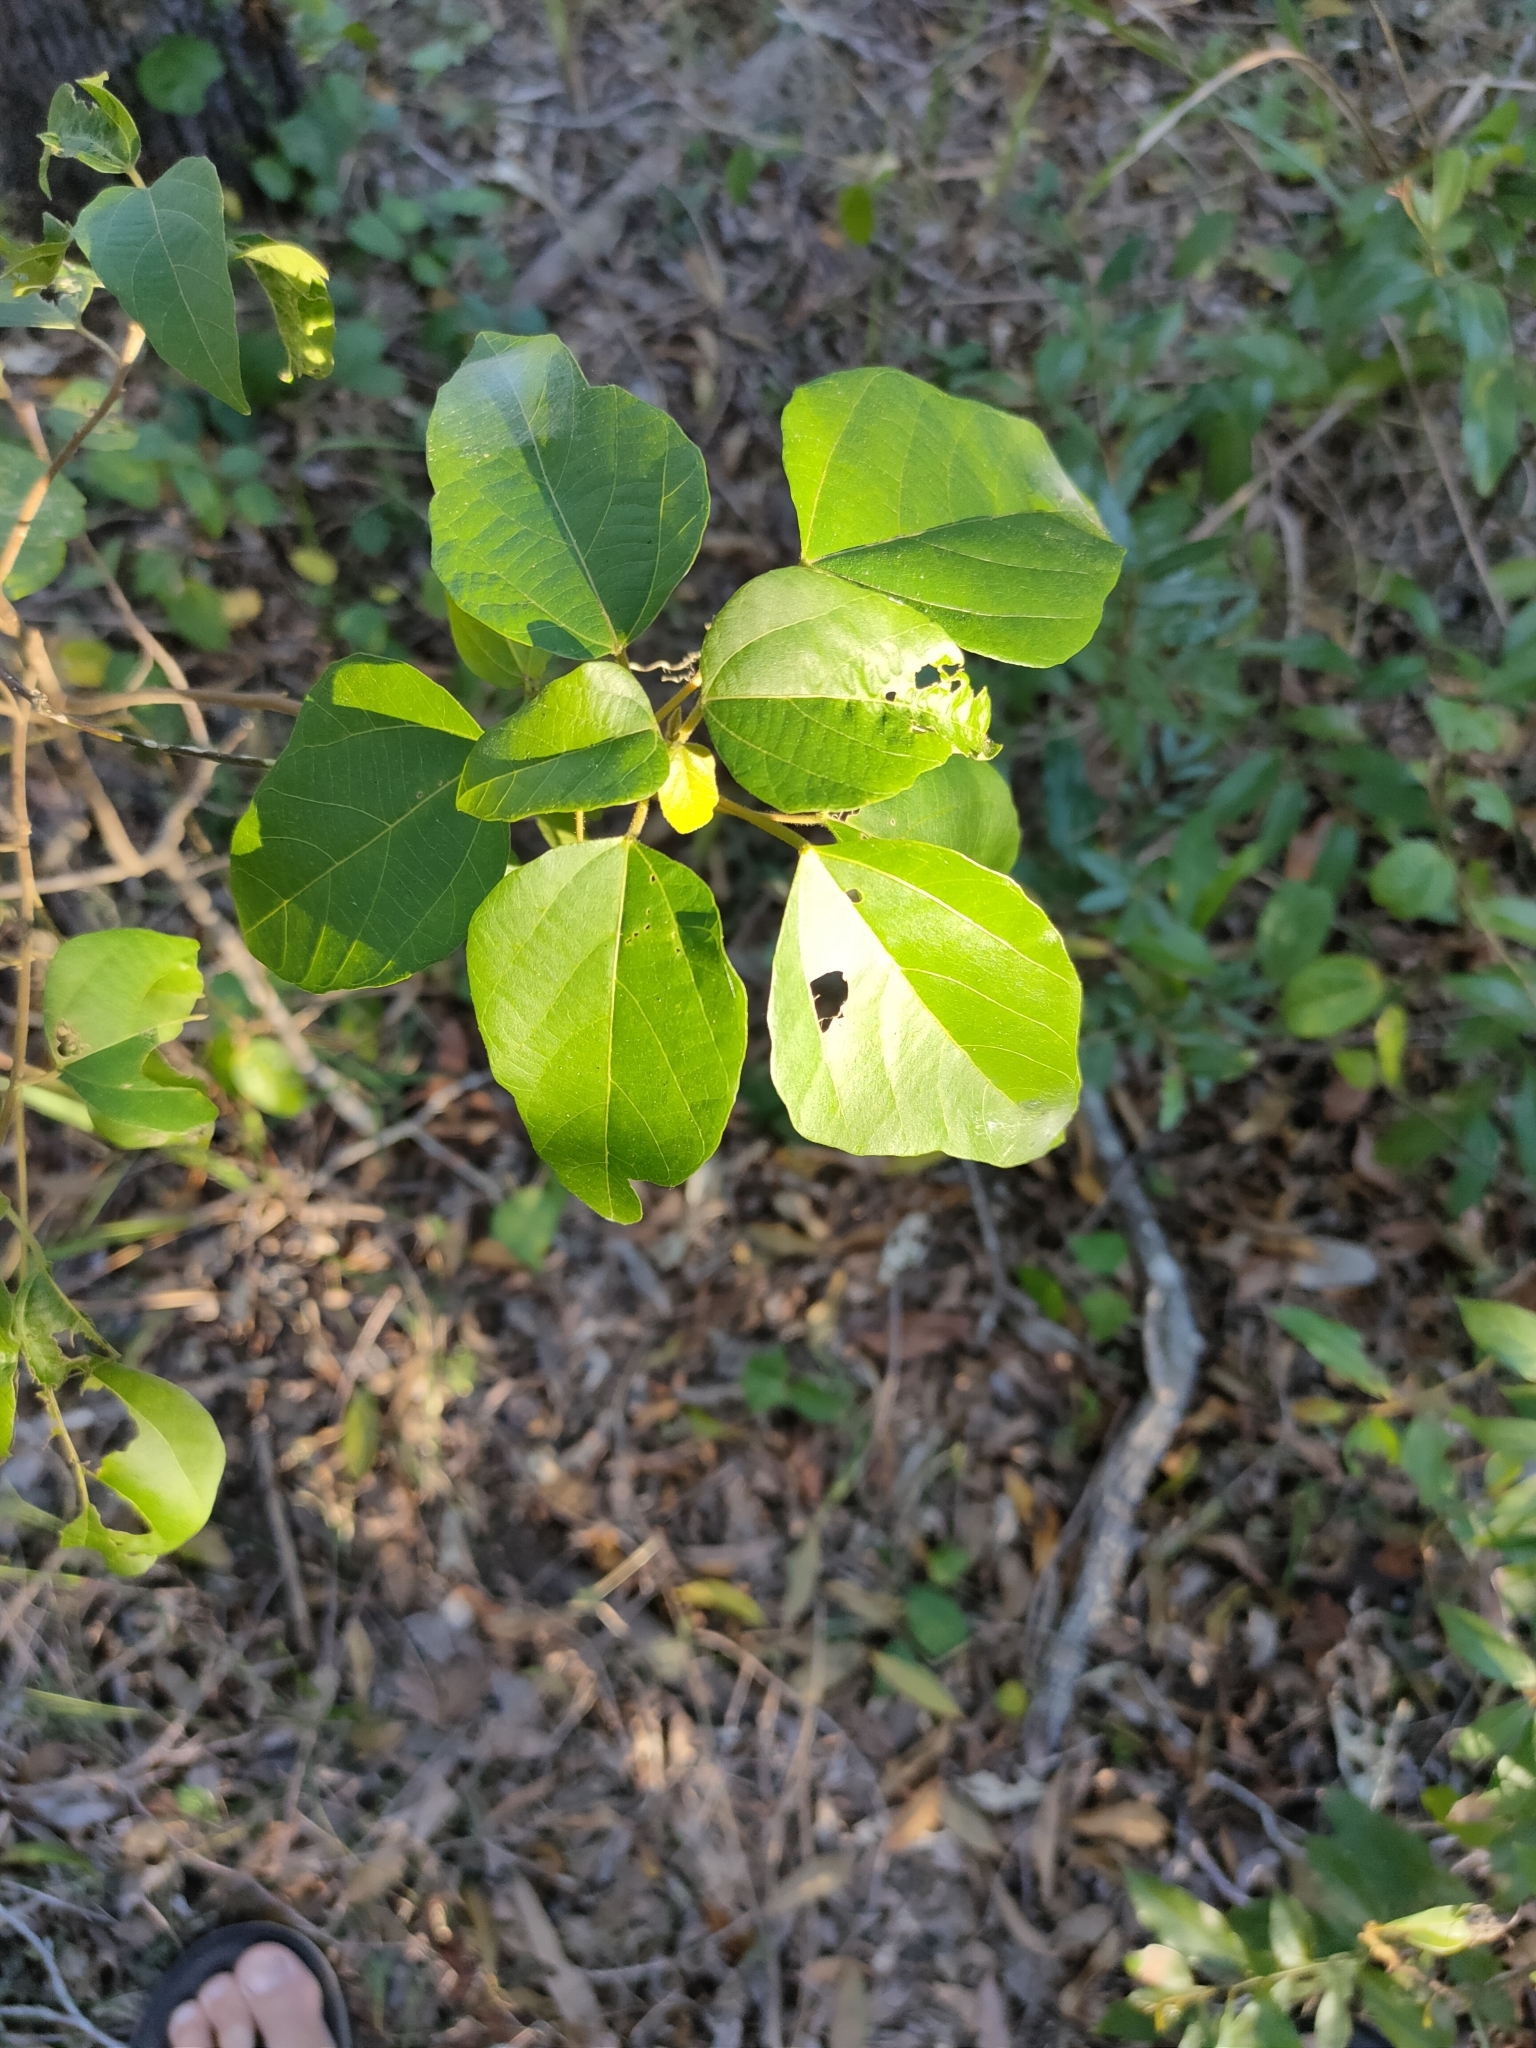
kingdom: Plantae
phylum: Tracheophyta
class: Magnoliopsida
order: Malpighiales
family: Euphorbiaceae
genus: Mallotus
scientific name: Mallotus discolor
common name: White kamala
